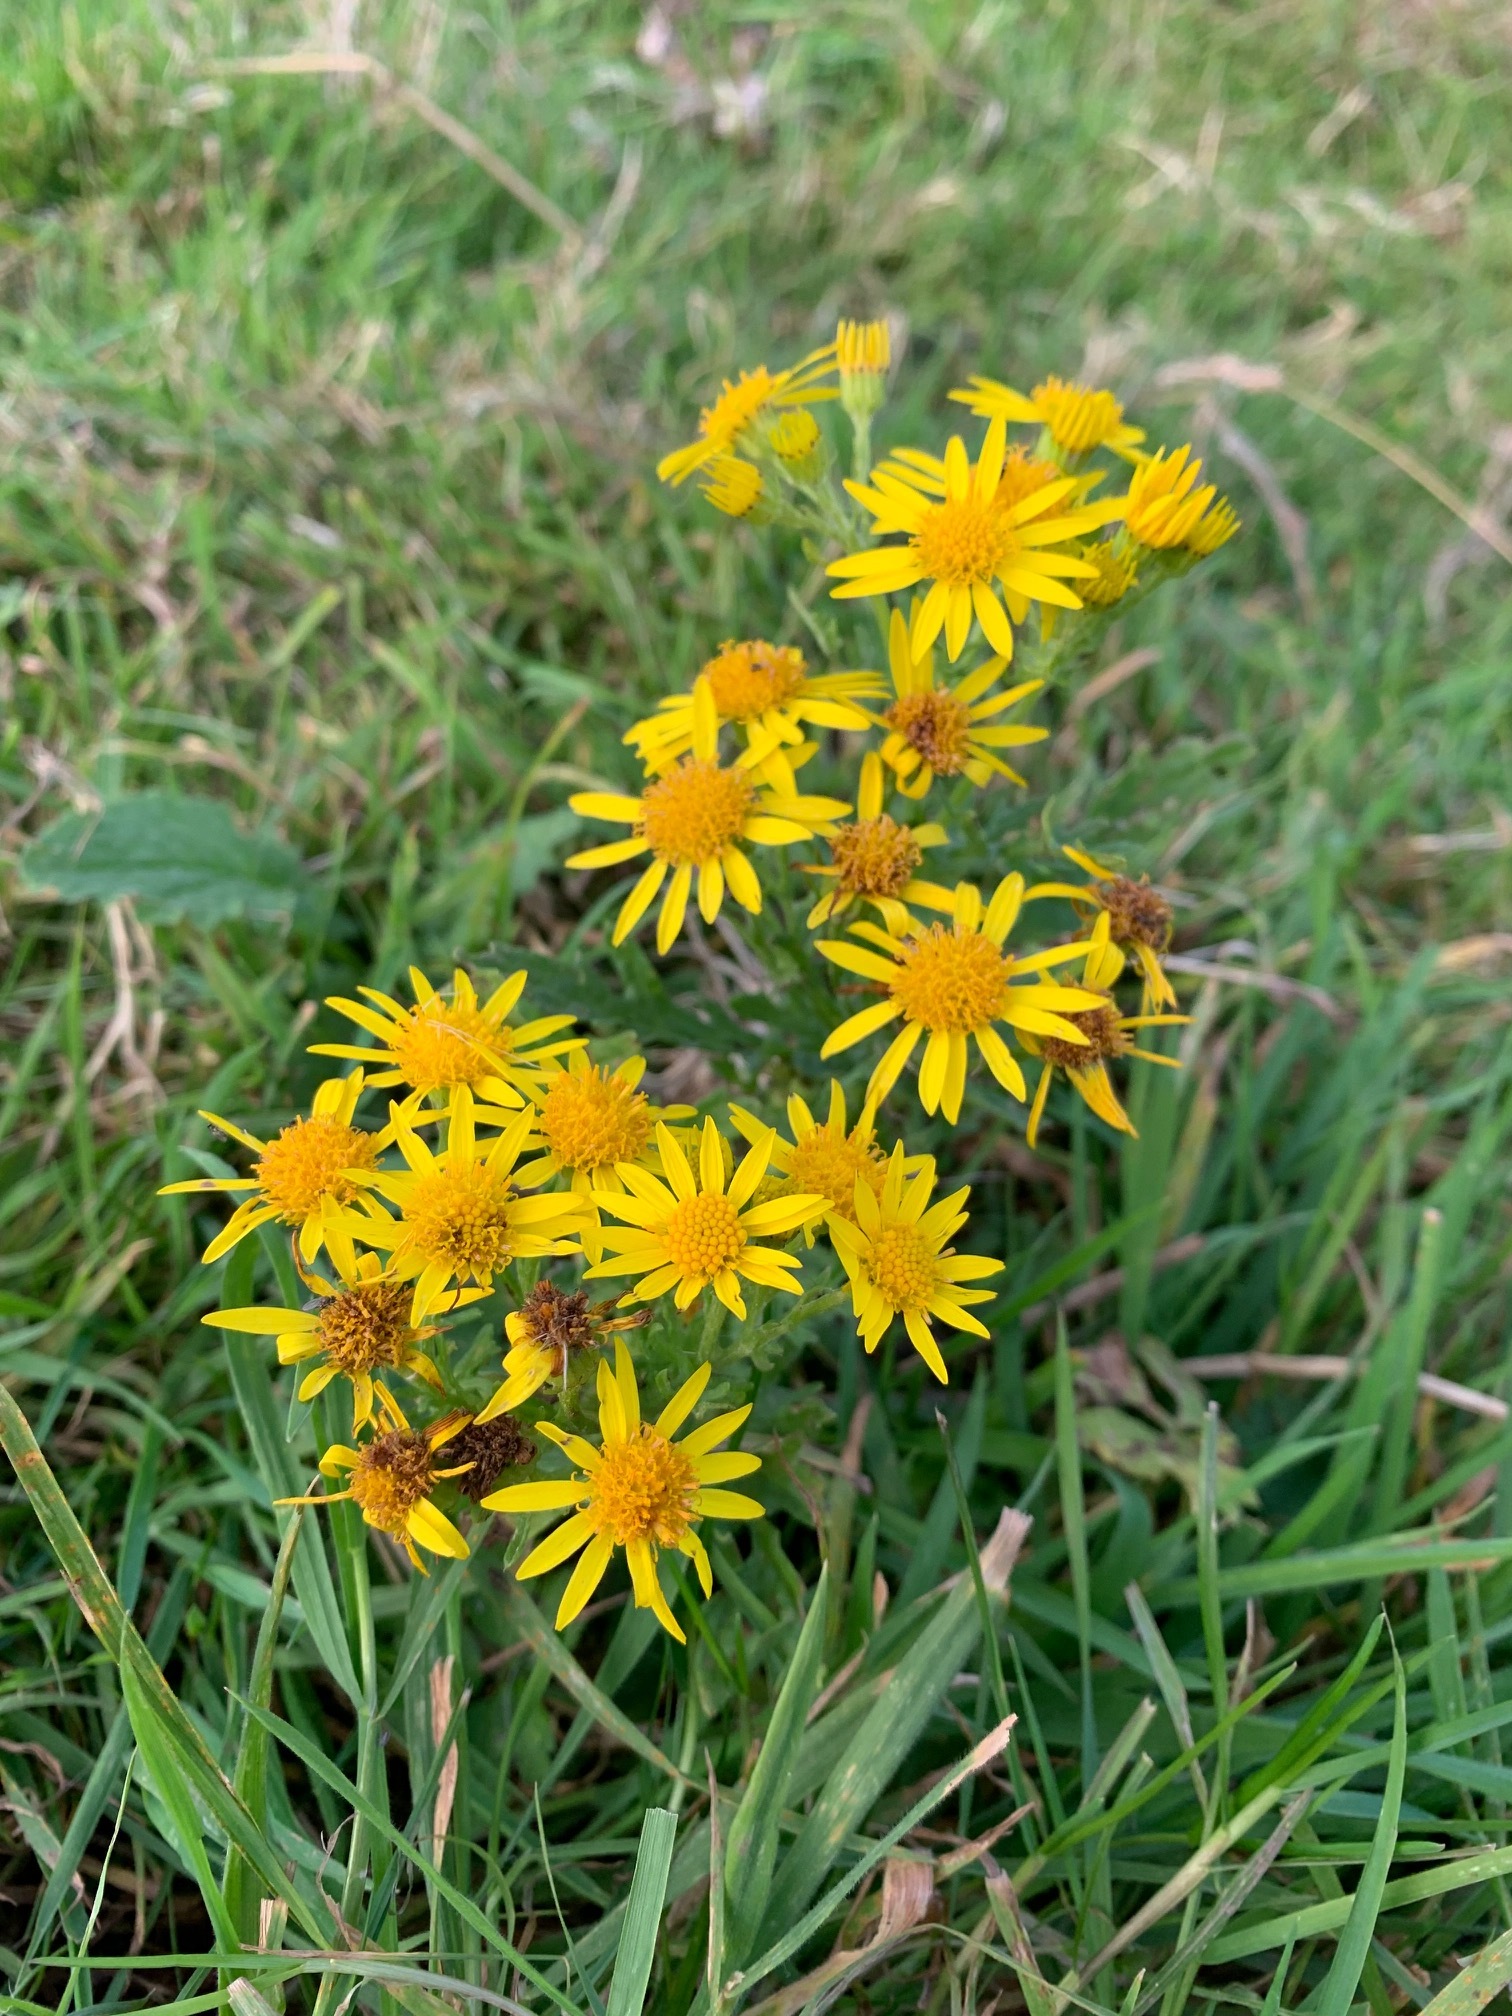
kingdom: Plantae
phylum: Tracheophyta
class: Magnoliopsida
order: Asterales
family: Asteraceae
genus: Jacobaea
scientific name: Jacobaea vulgaris
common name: Stinking willie
